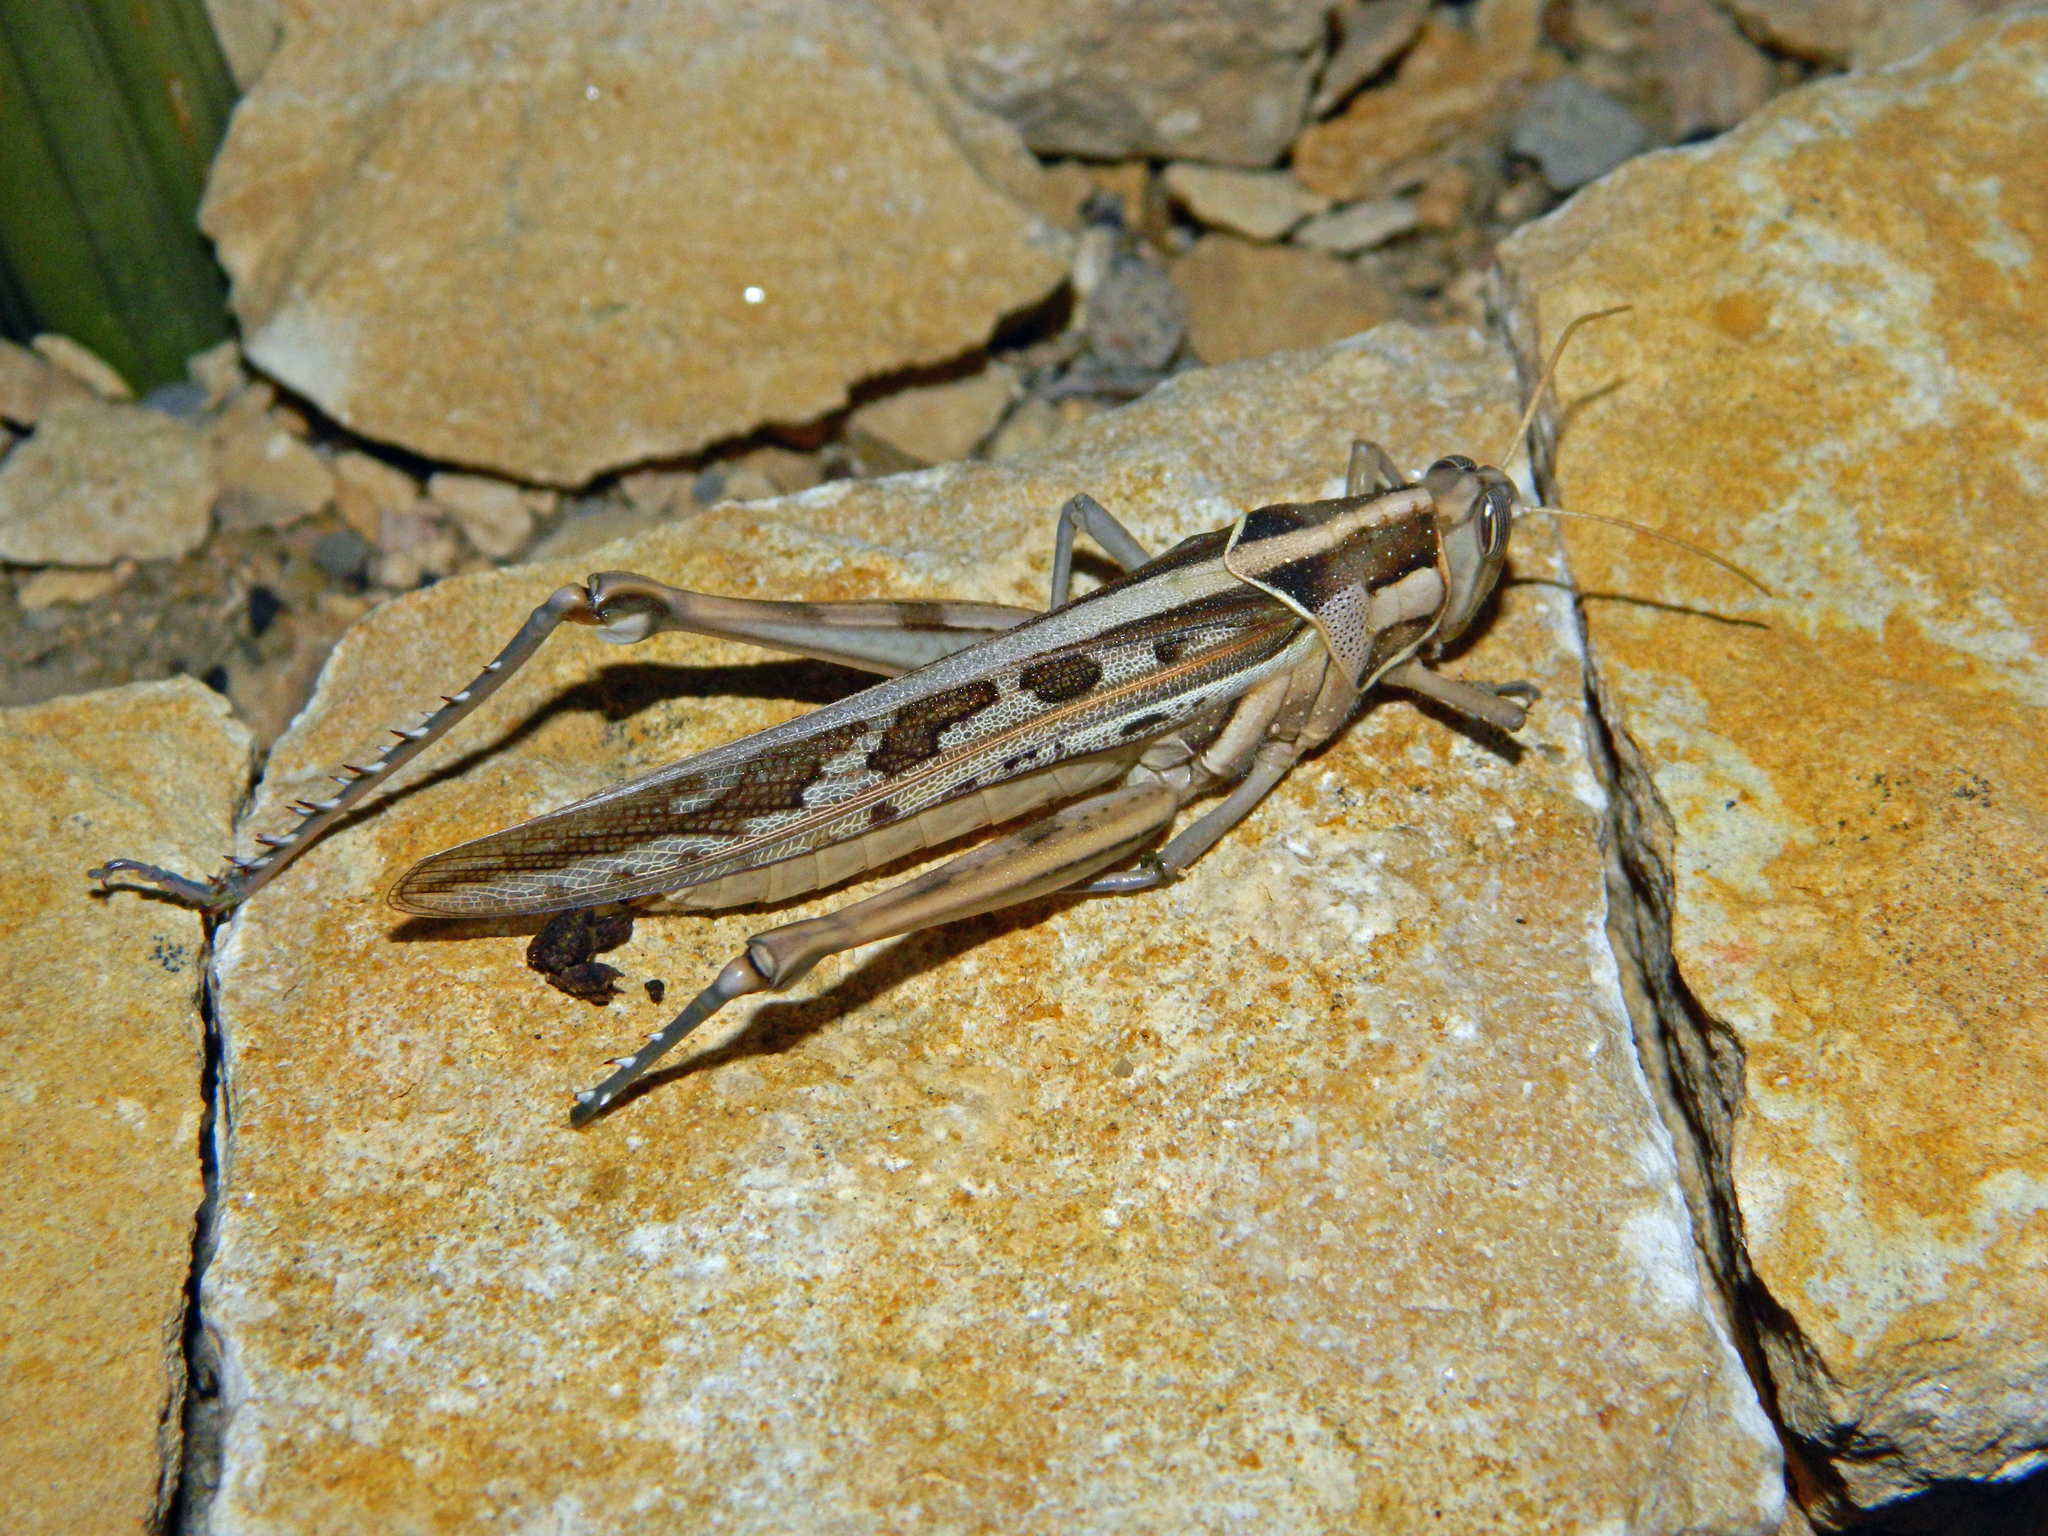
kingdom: Animalia
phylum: Arthropoda
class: Insecta
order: Orthoptera
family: Acrididae
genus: Cyrtacanthacris
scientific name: Cyrtacanthacris tatarica
